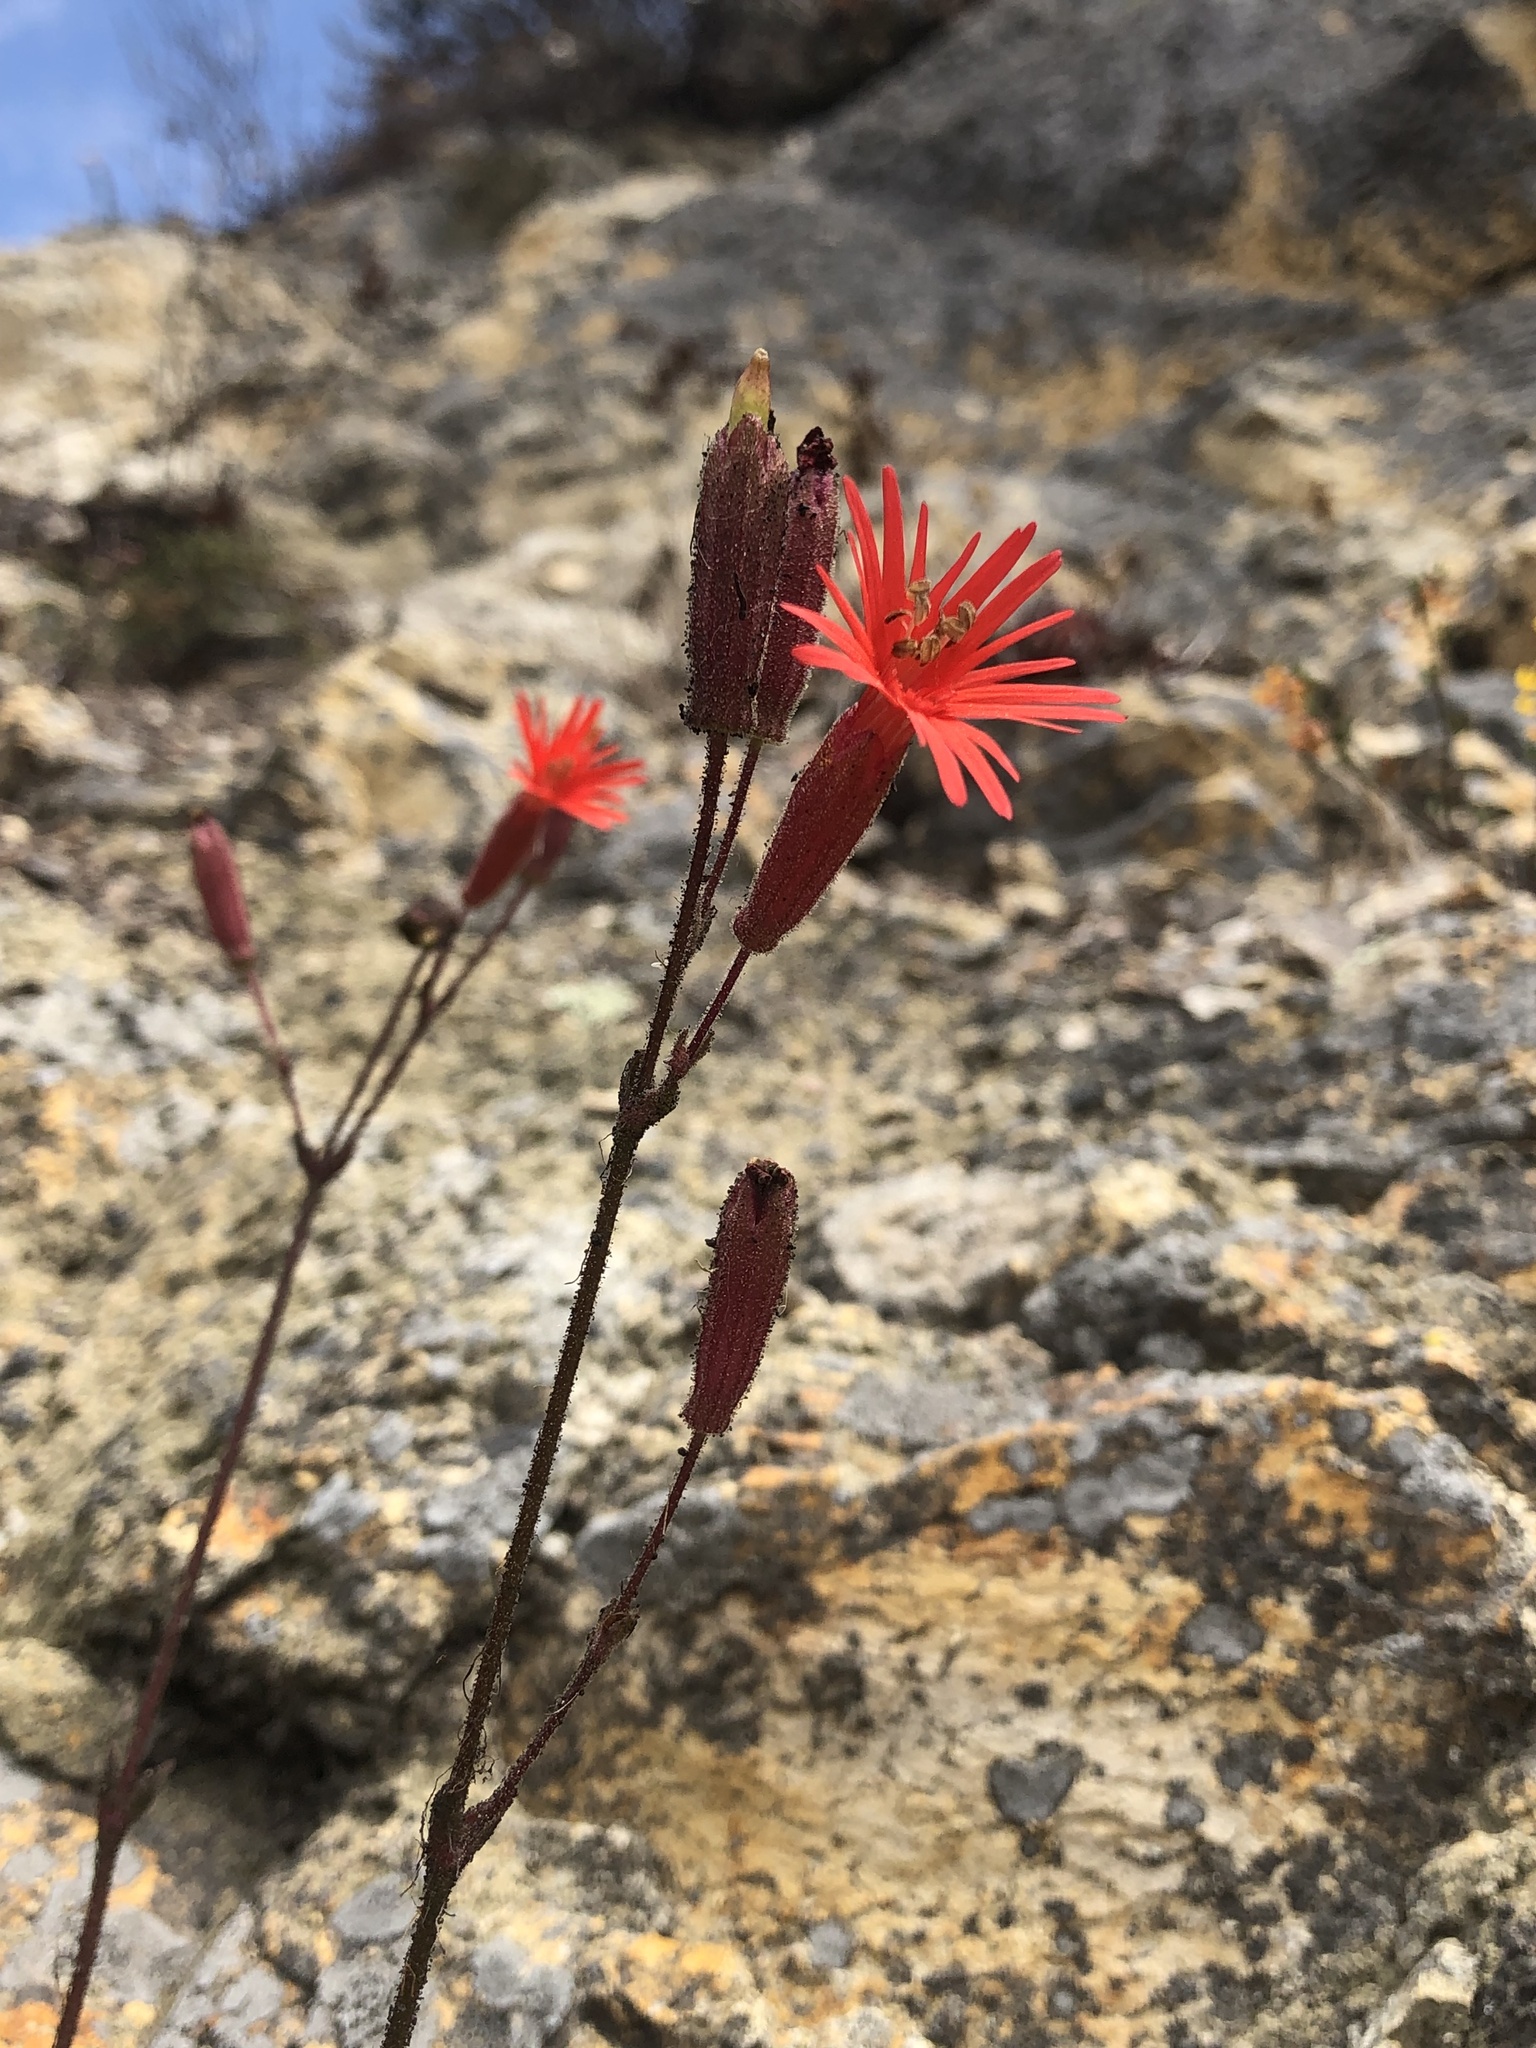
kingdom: Plantae
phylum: Tracheophyta
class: Magnoliopsida
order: Caryophyllales
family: Caryophyllaceae
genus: Silene
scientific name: Silene laciniata
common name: Indian-pink
